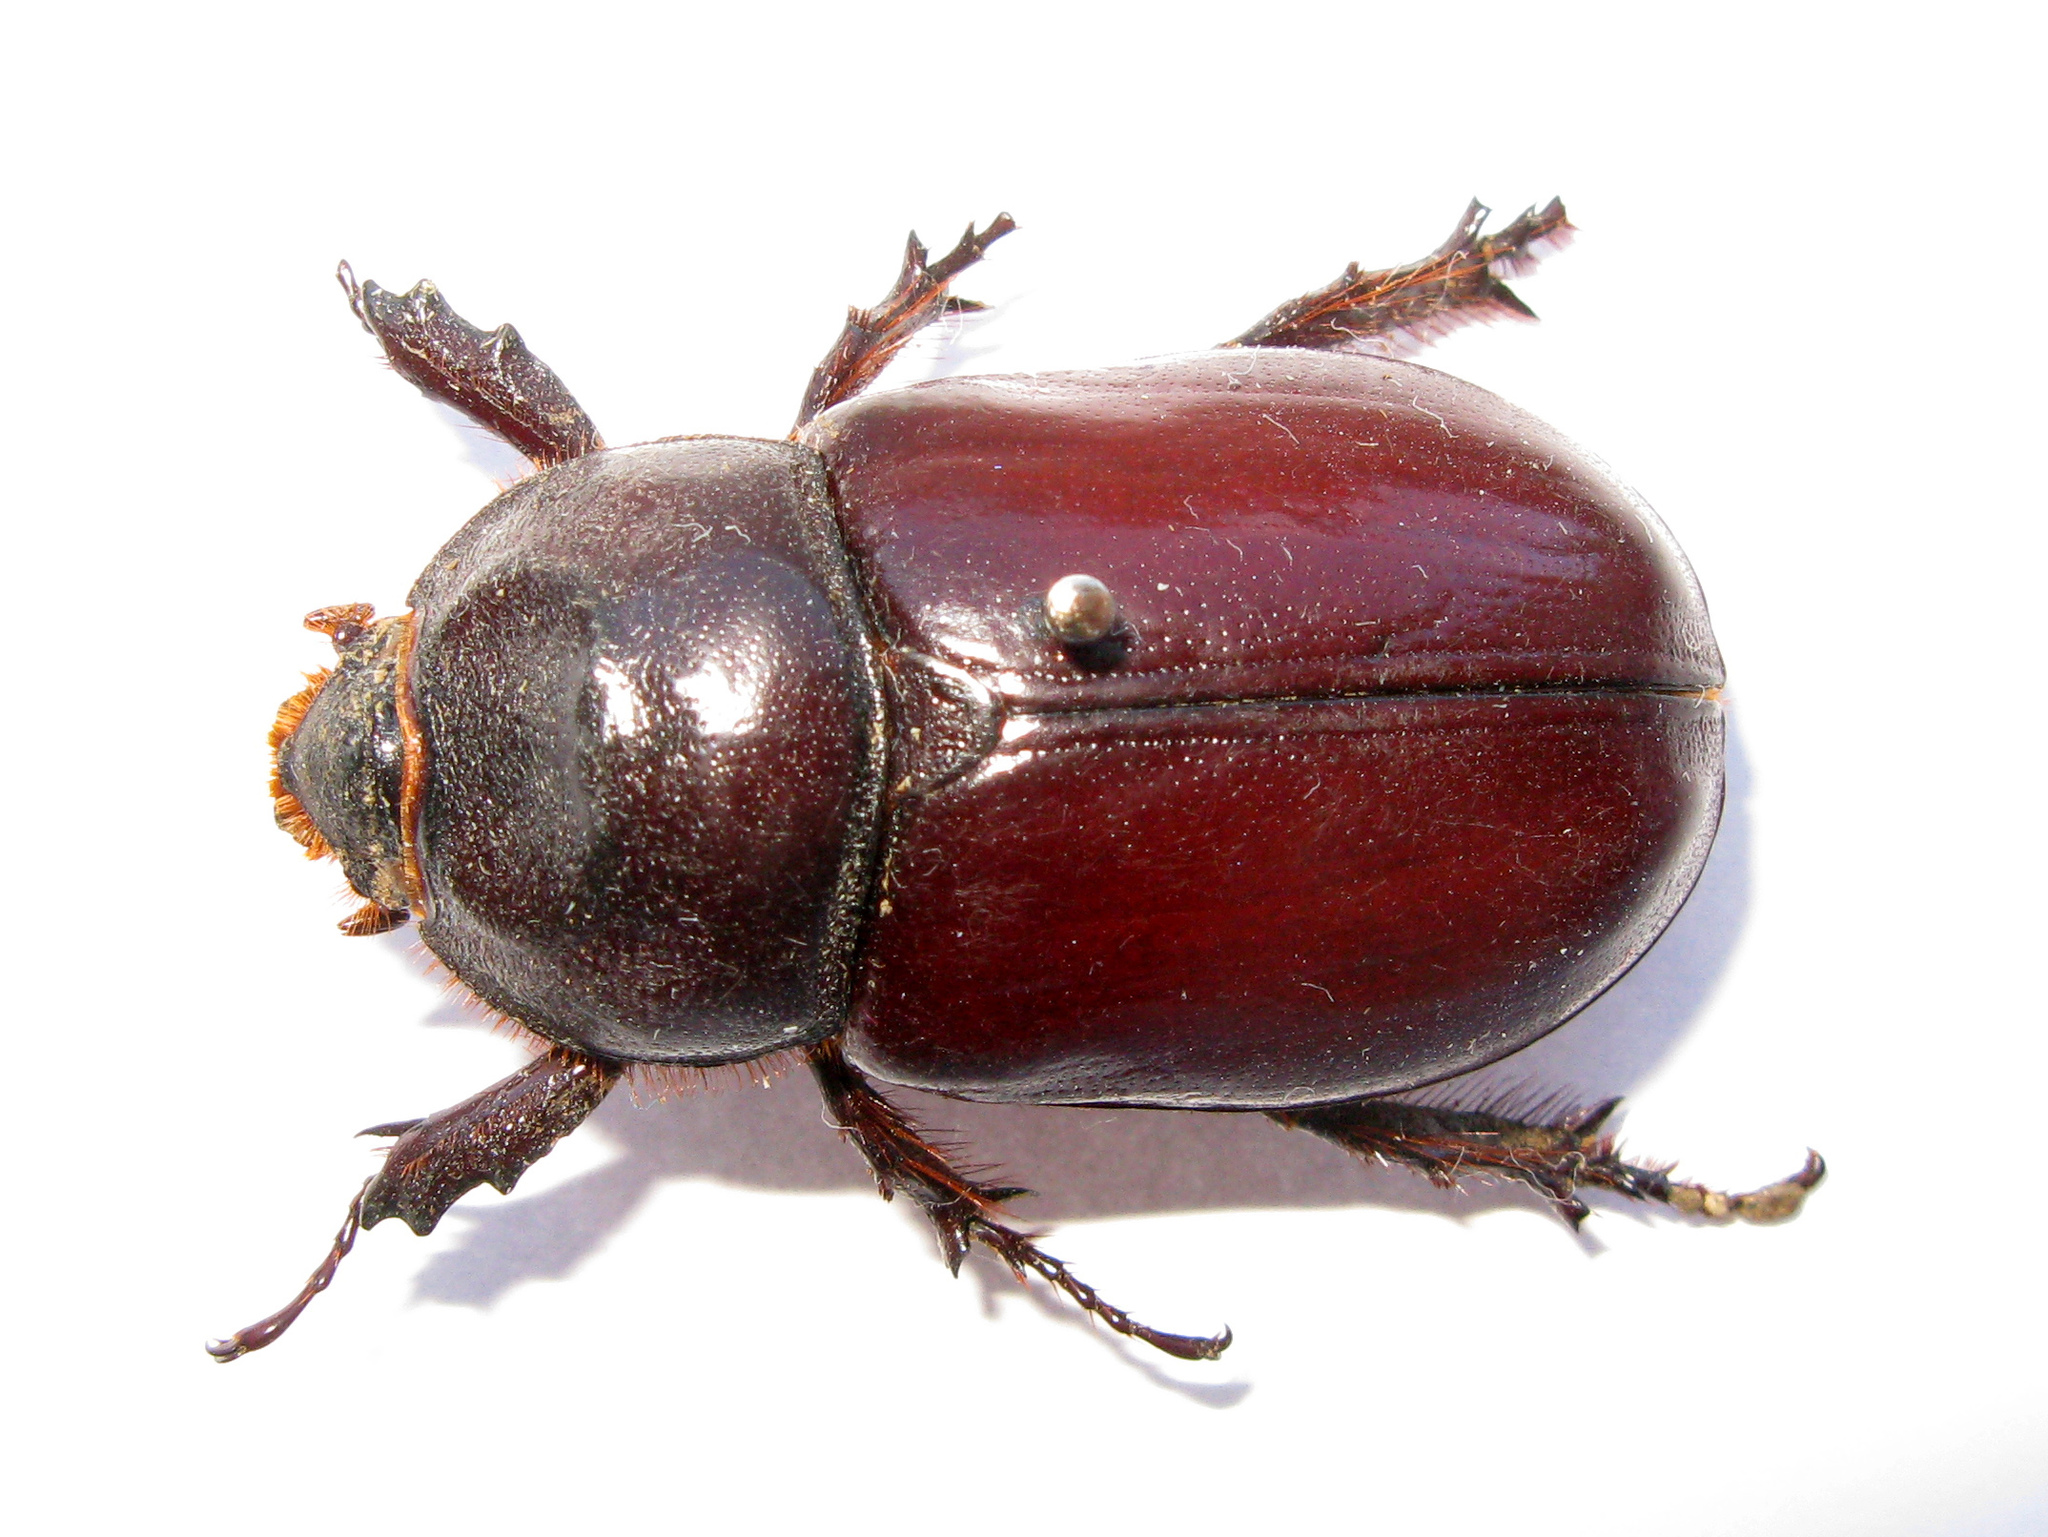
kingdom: Animalia
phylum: Arthropoda
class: Insecta
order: Coleoptera
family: Scarabaeidae
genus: Oryctes
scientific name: Oryctes nasicornis
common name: European rhinoceros beetle
